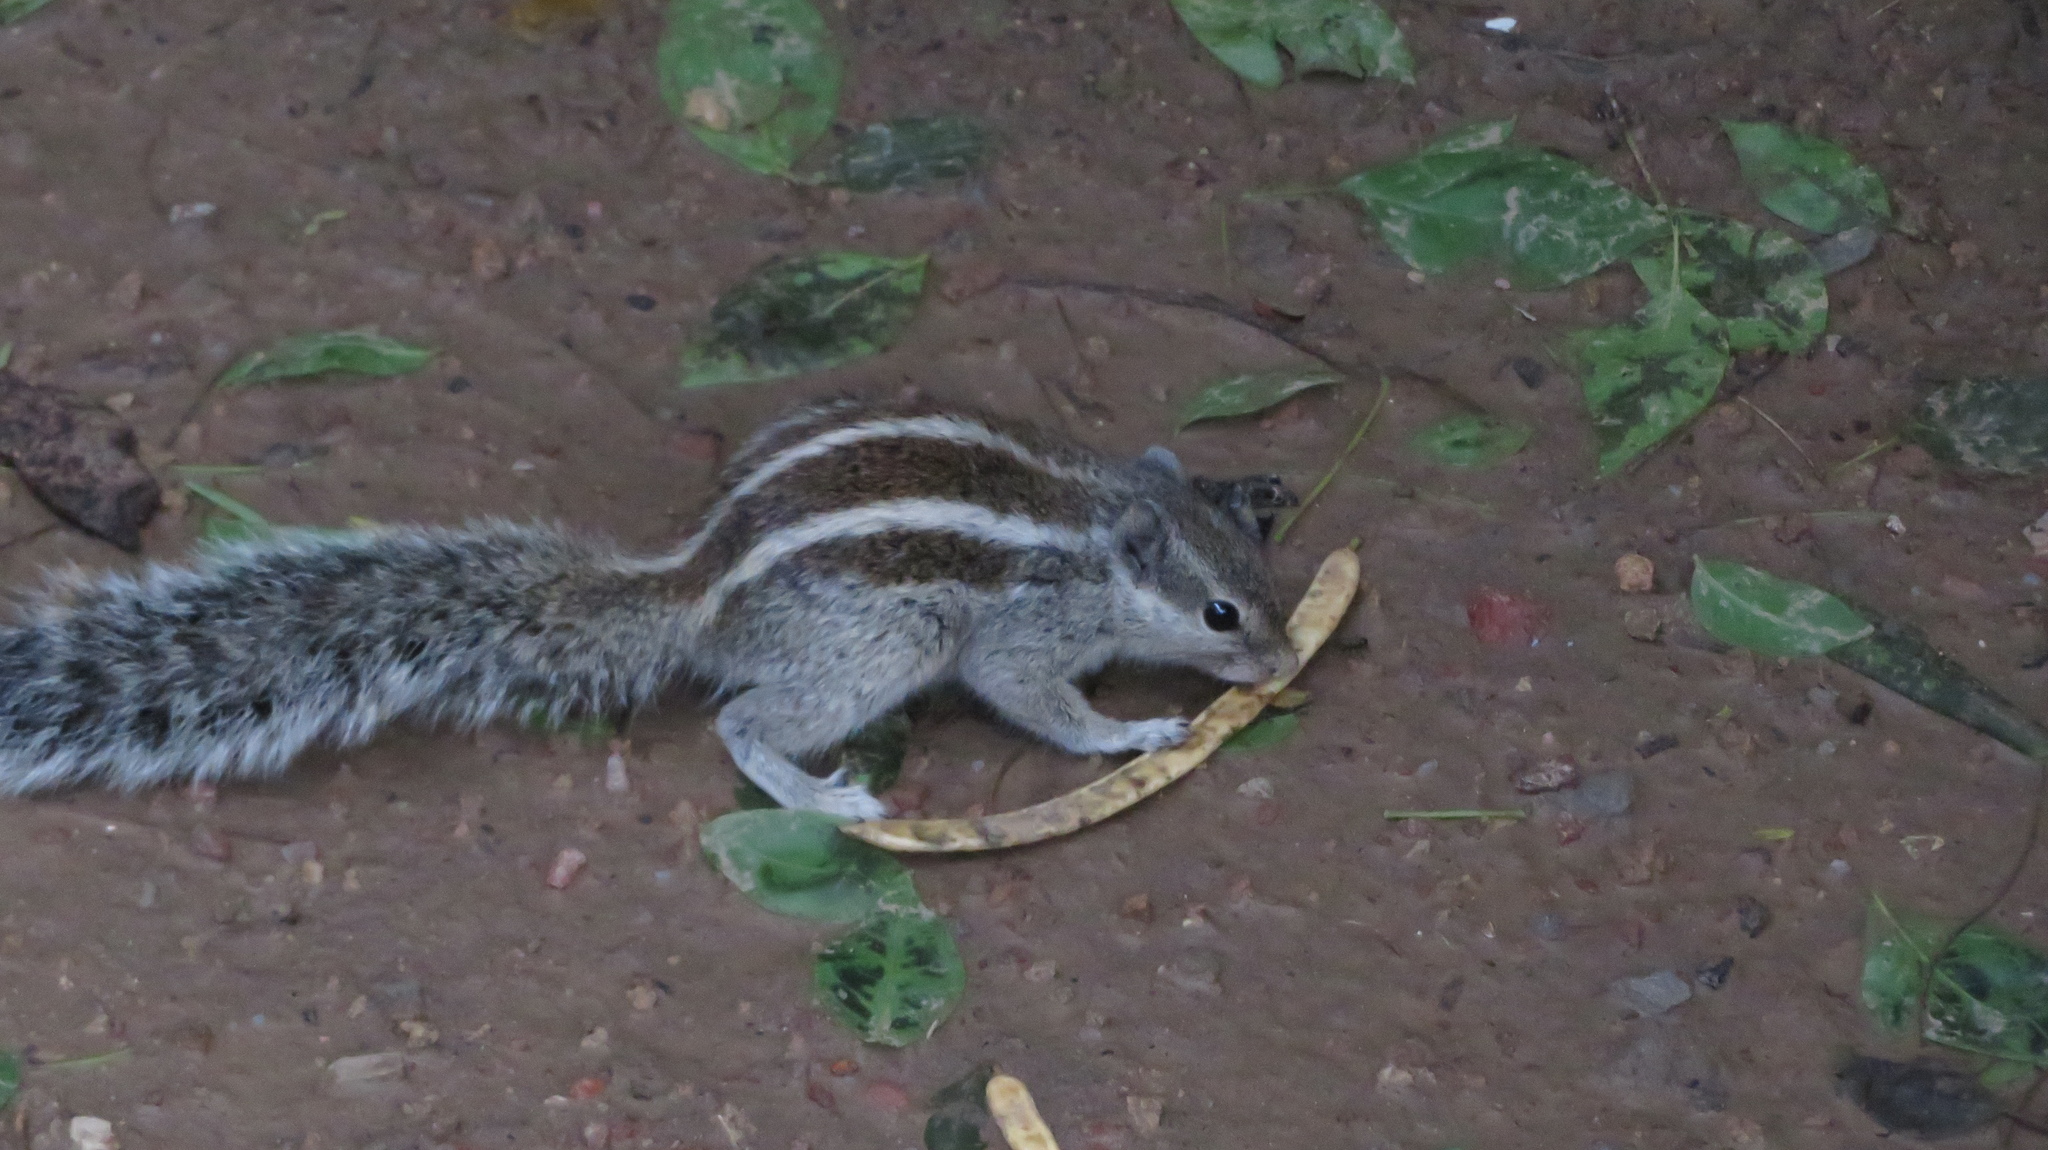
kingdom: Animalia
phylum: Chordata
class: Mammalia
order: Rodentia
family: Sciuridae
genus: Funambulus
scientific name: Funambulus pennantii
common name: Northern palm squirrel
